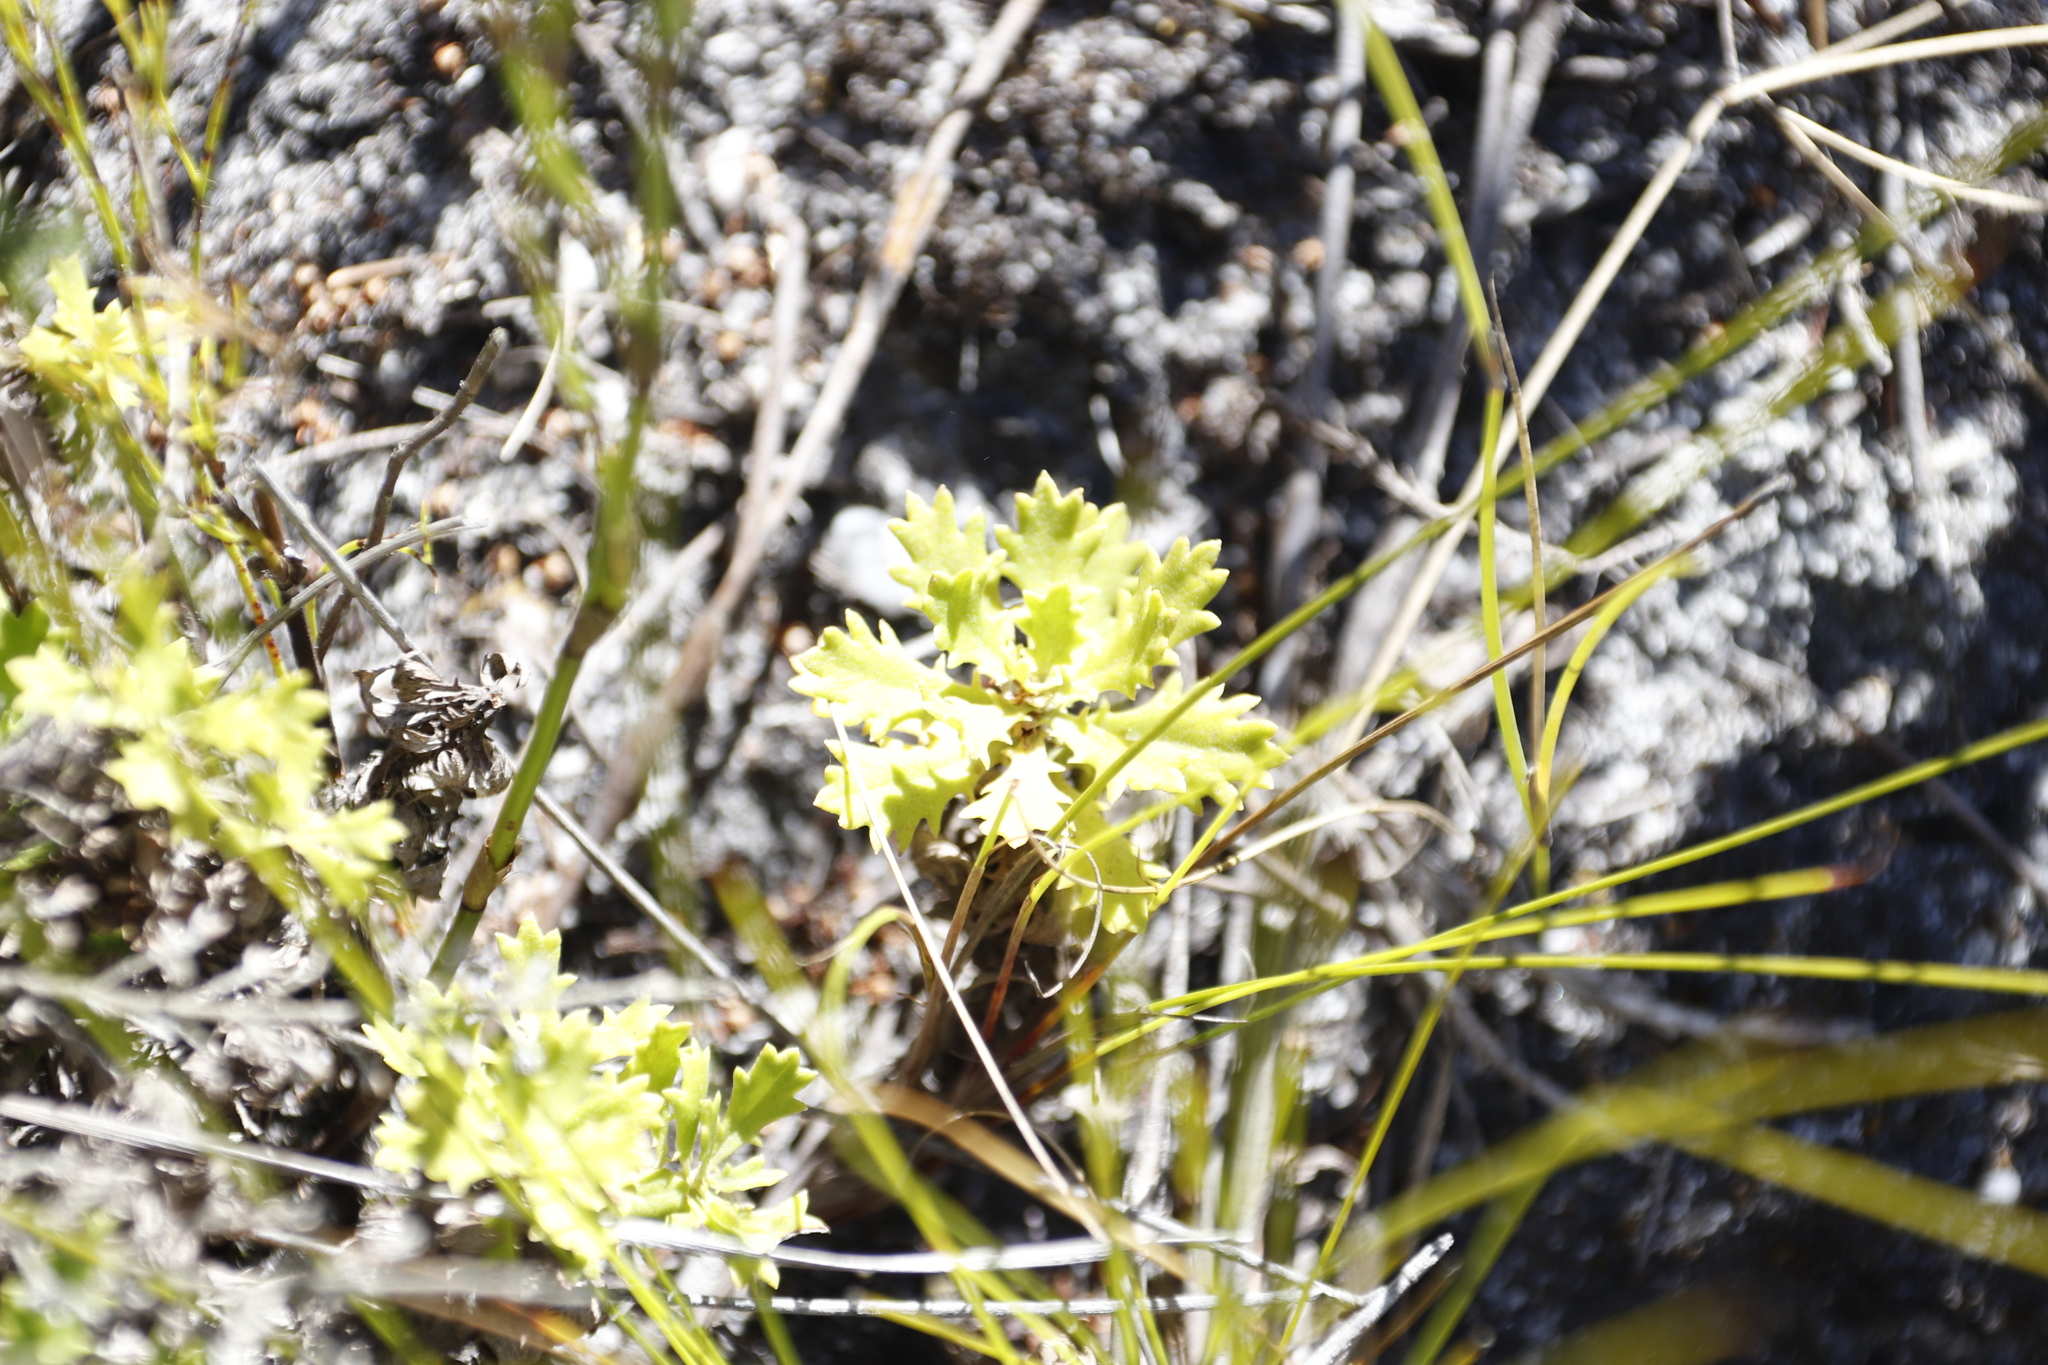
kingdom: Plantae
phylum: Tracheophyta
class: Magnoliopsida
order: Asterales
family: Asteraceae
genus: Osmitopsis
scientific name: Osmitopsis dentata
